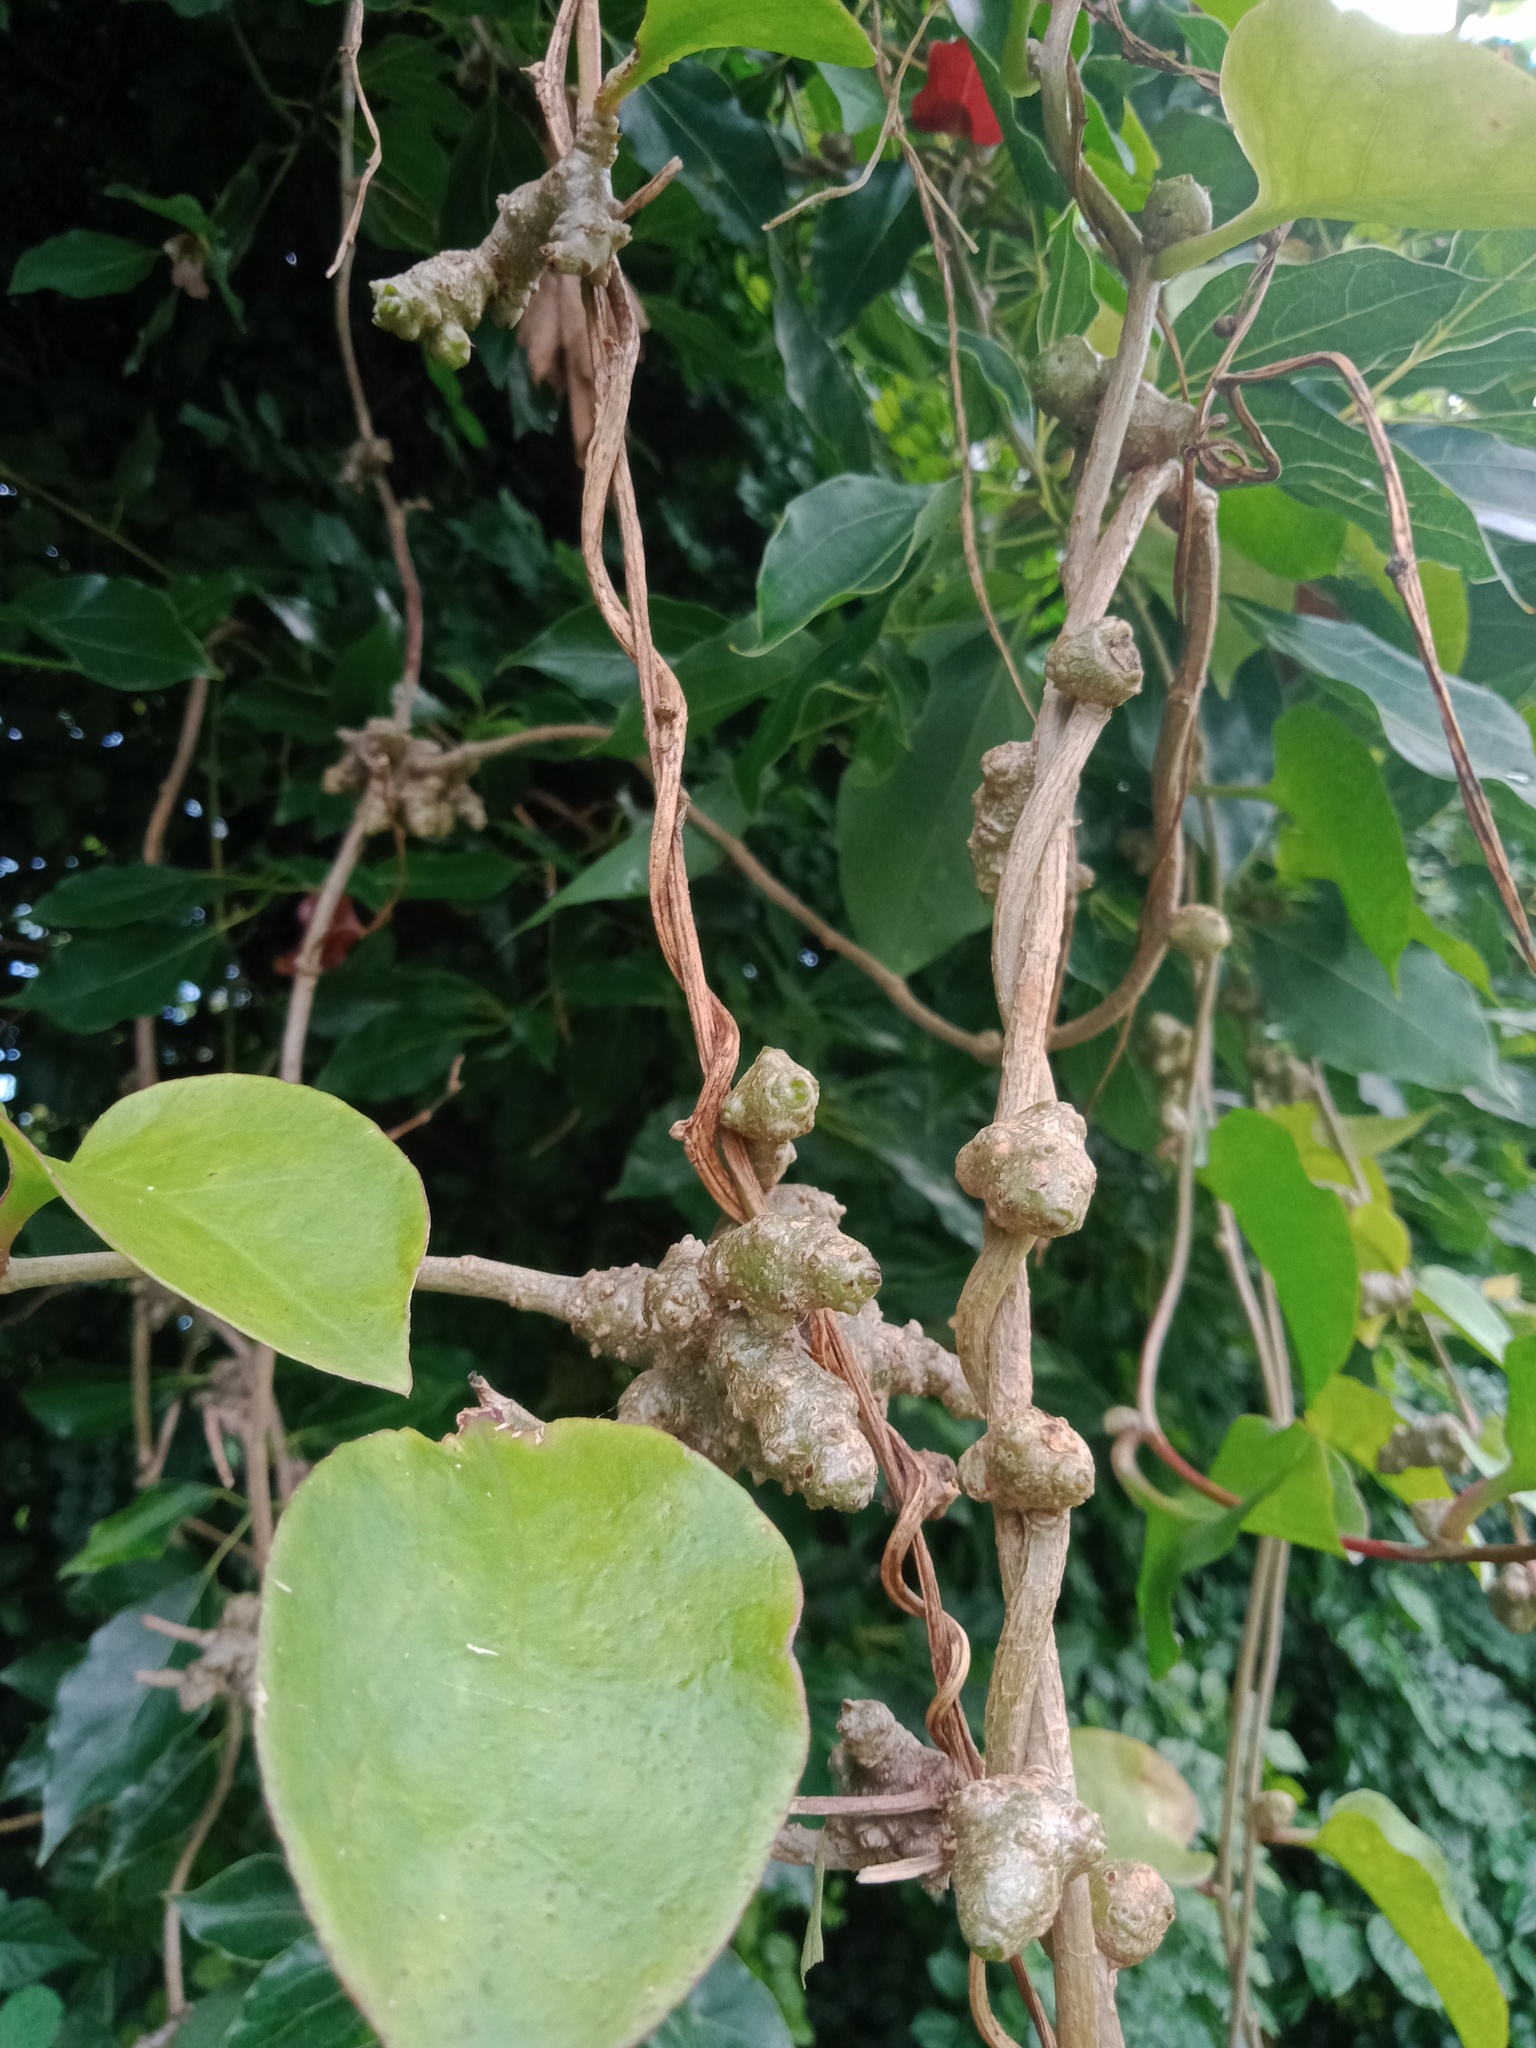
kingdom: Plantae
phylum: Tracheophyta
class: Magnoliopsida
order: Caryophyllales
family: Basellaceae
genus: Anredera
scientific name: Anredera cordifolia
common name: Heartleaf madeiravine
